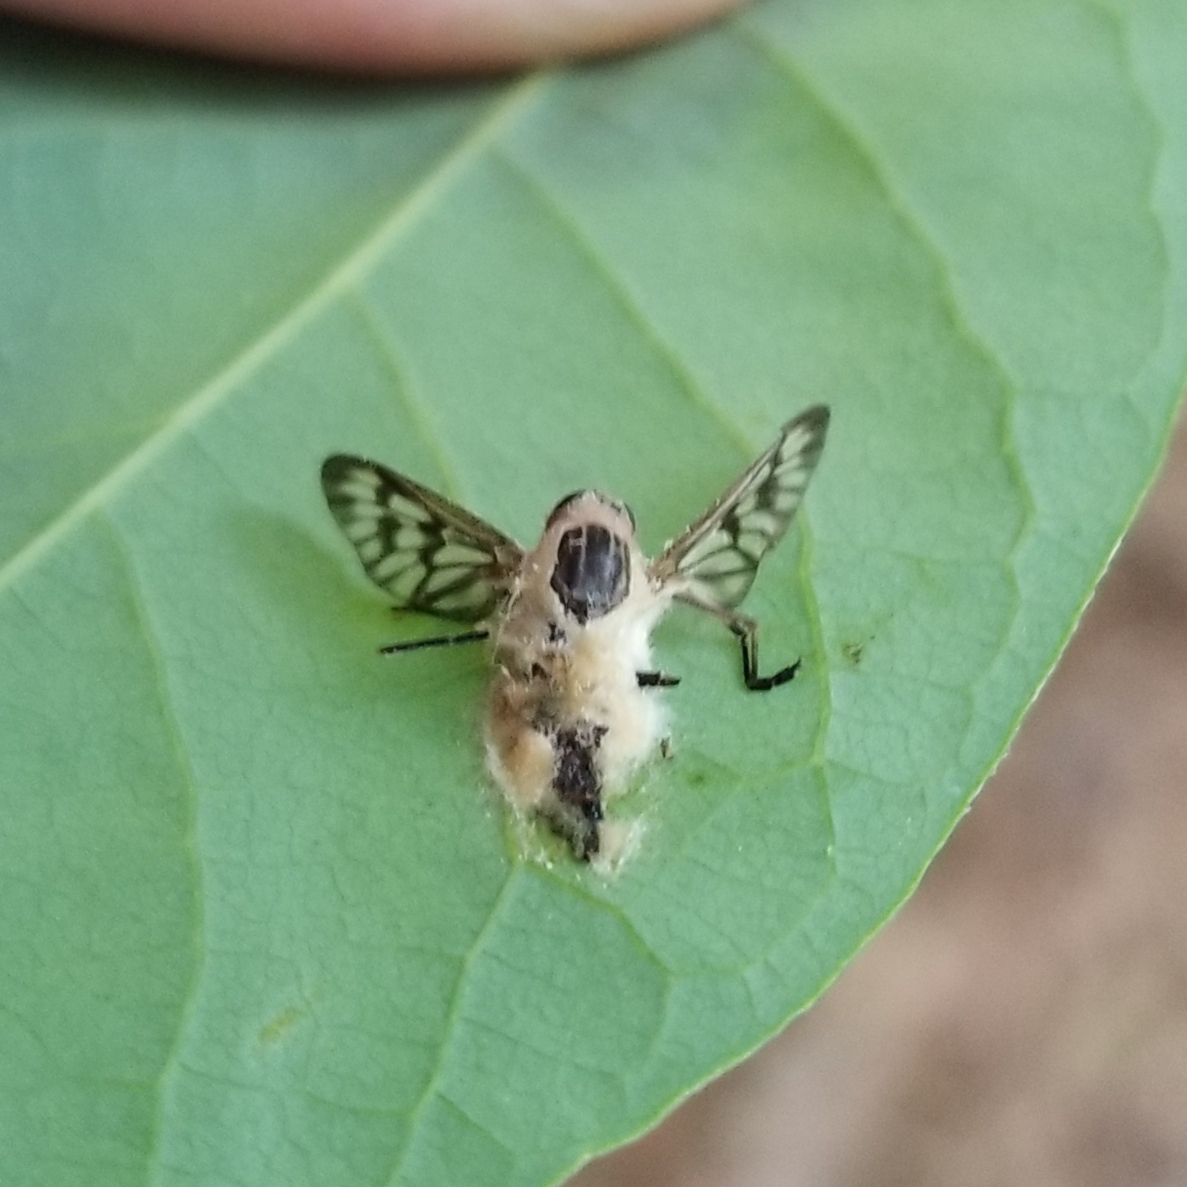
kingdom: Fungi
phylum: Entomophthoromycota
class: Entomophthoromycetes
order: Entomophthorales
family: Entomophthoraceae
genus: Furia
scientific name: Furia ithacensis
